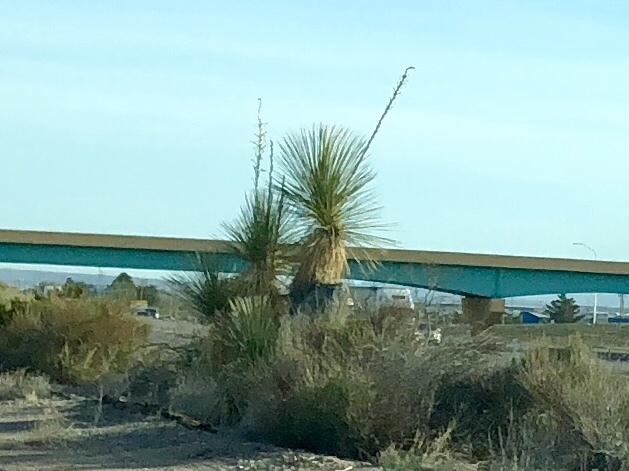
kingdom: Plantae
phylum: Tracheophyta
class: Liliopsida
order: Asparagales
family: Asparagaceae
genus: Yucca
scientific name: Yucca elata
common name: Palmella
